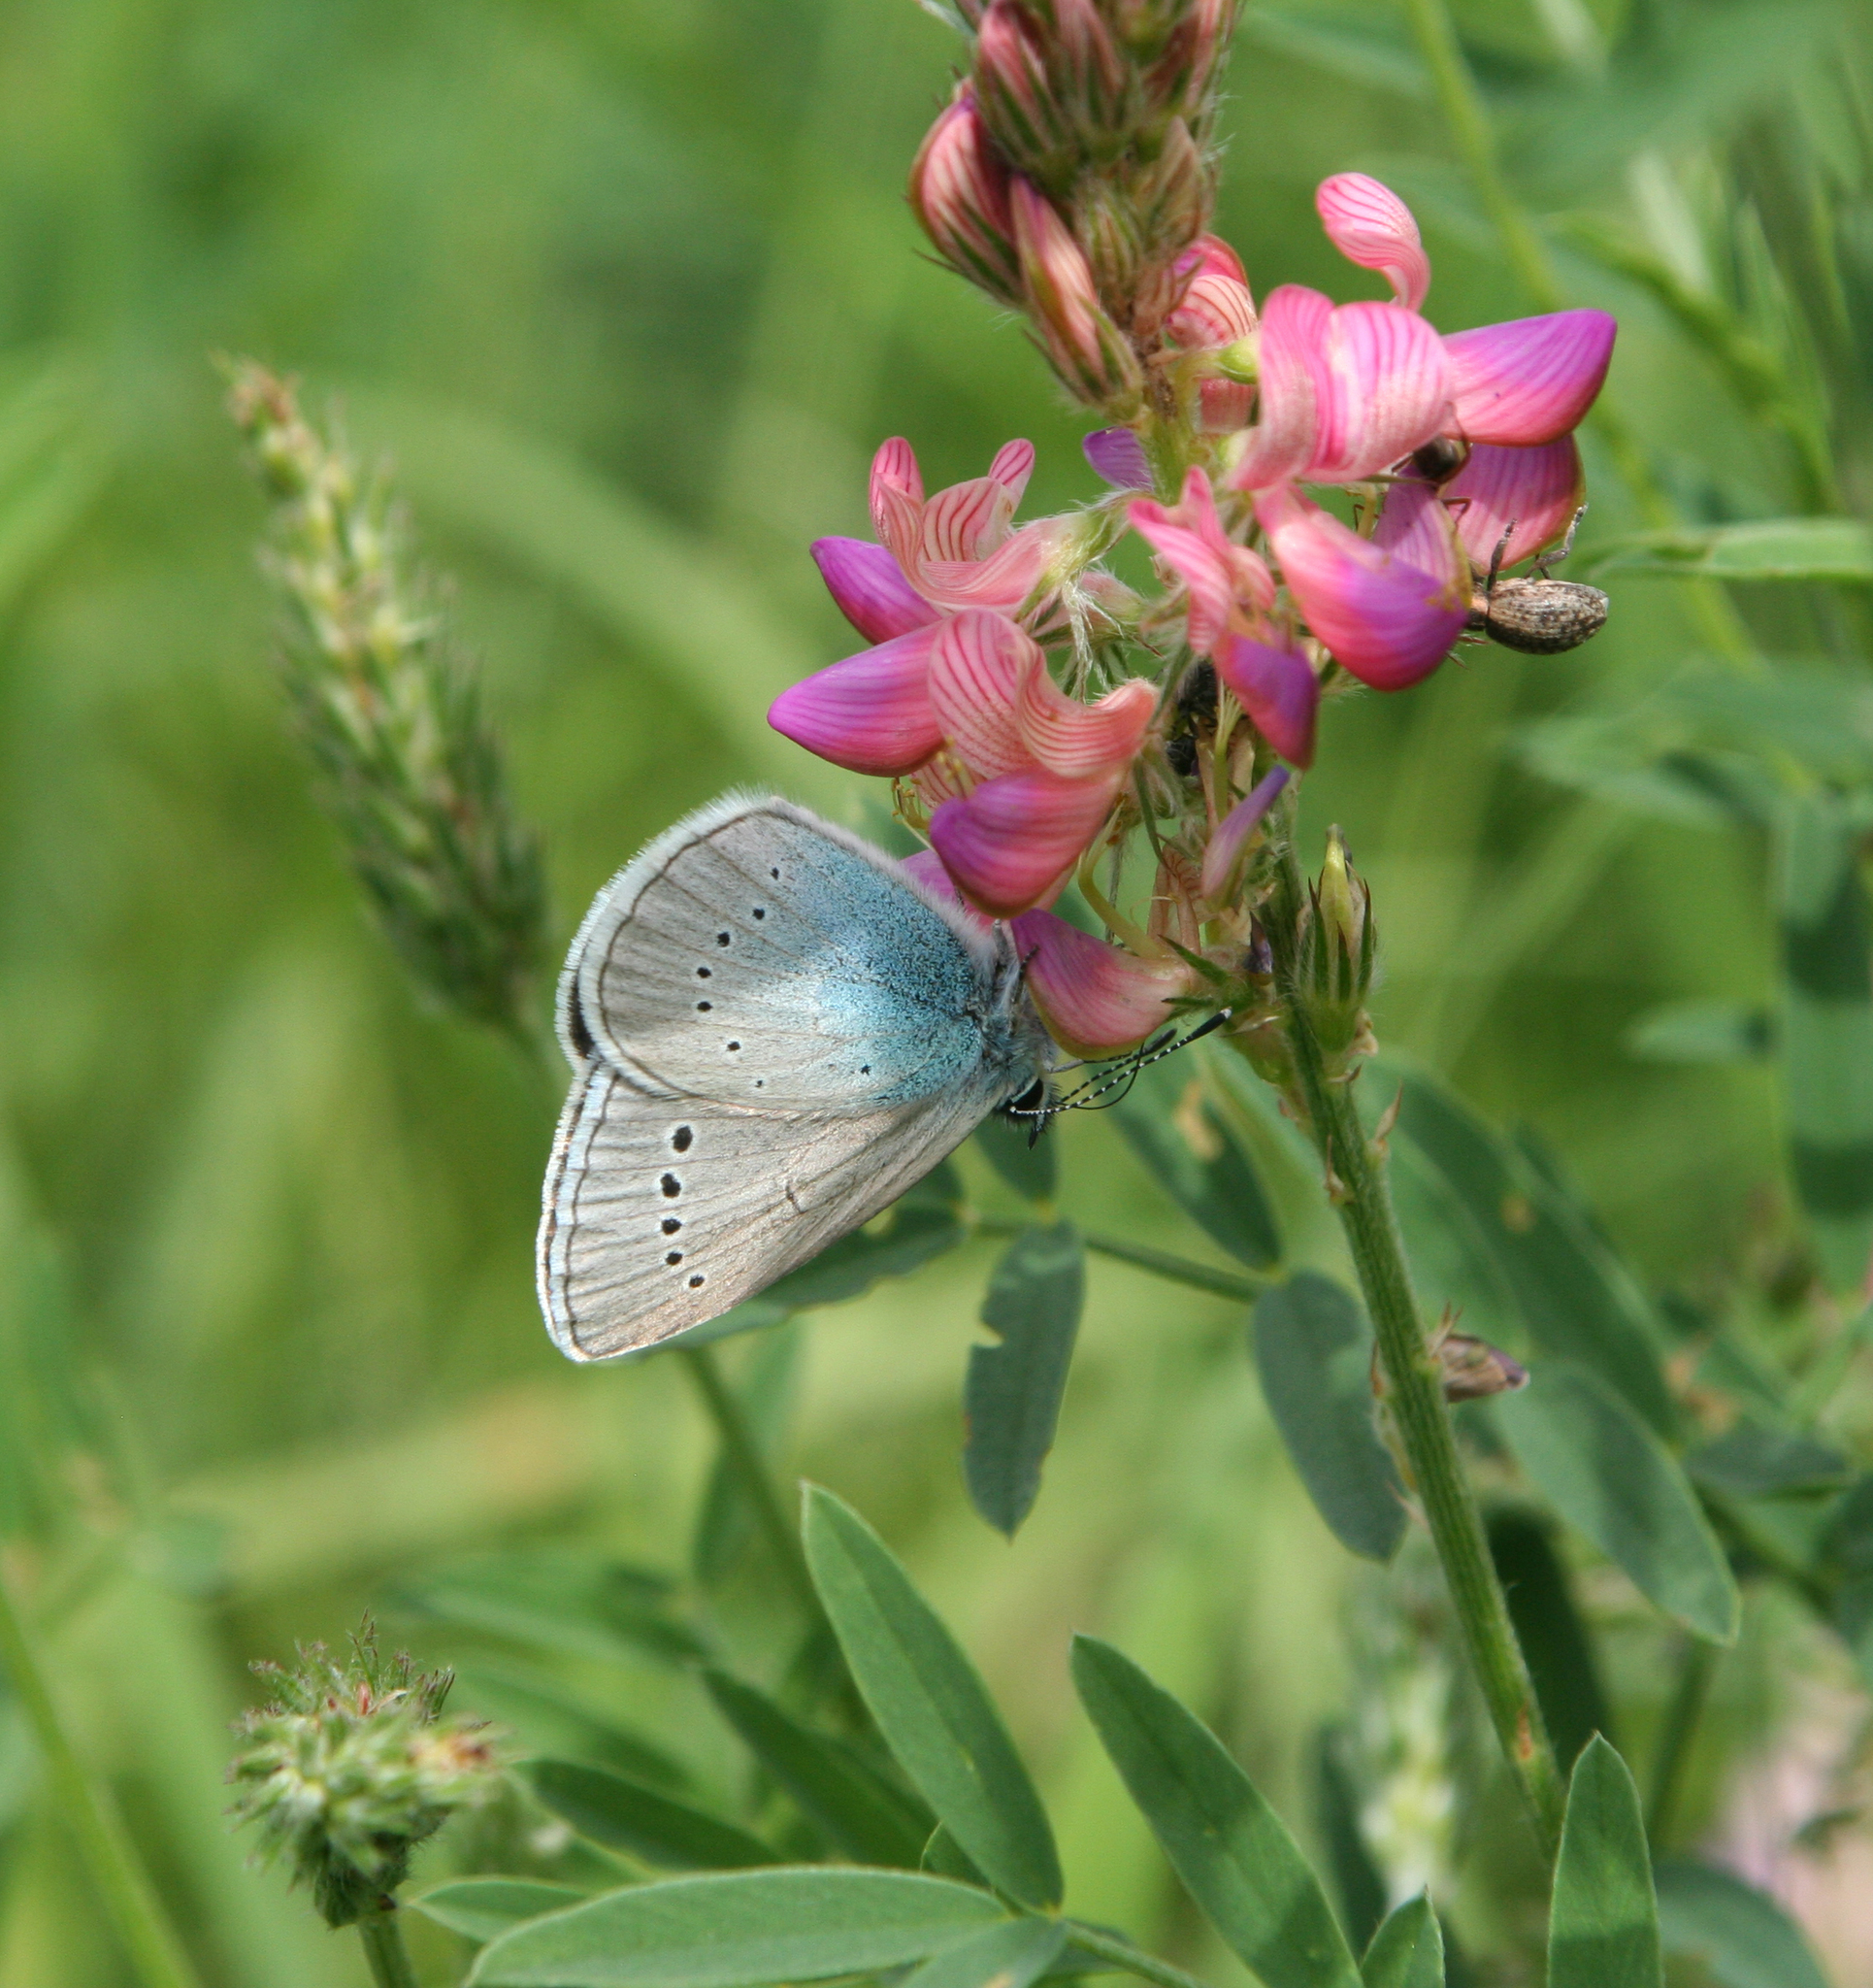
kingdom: Animalia
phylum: Arthropoda
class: Insecta
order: Lepidoptera
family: Lycaenidae
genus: Glaucopsyche
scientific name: Glaucopsyche lycormas
